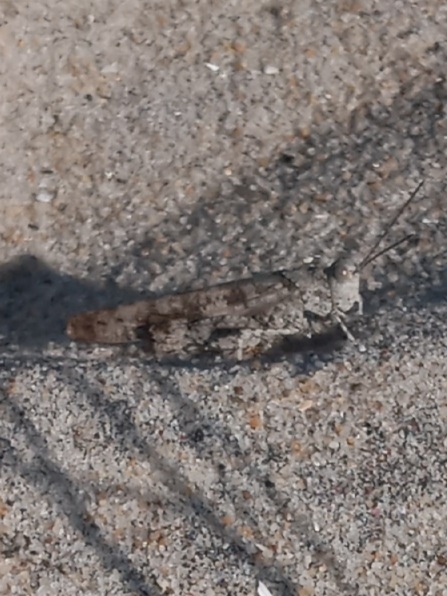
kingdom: Animalia
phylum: Arthropoda
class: Insecta
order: Orthoptera
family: Acrididae
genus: Trimerotropis
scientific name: Trimerotropis maritima
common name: Seaside locust
